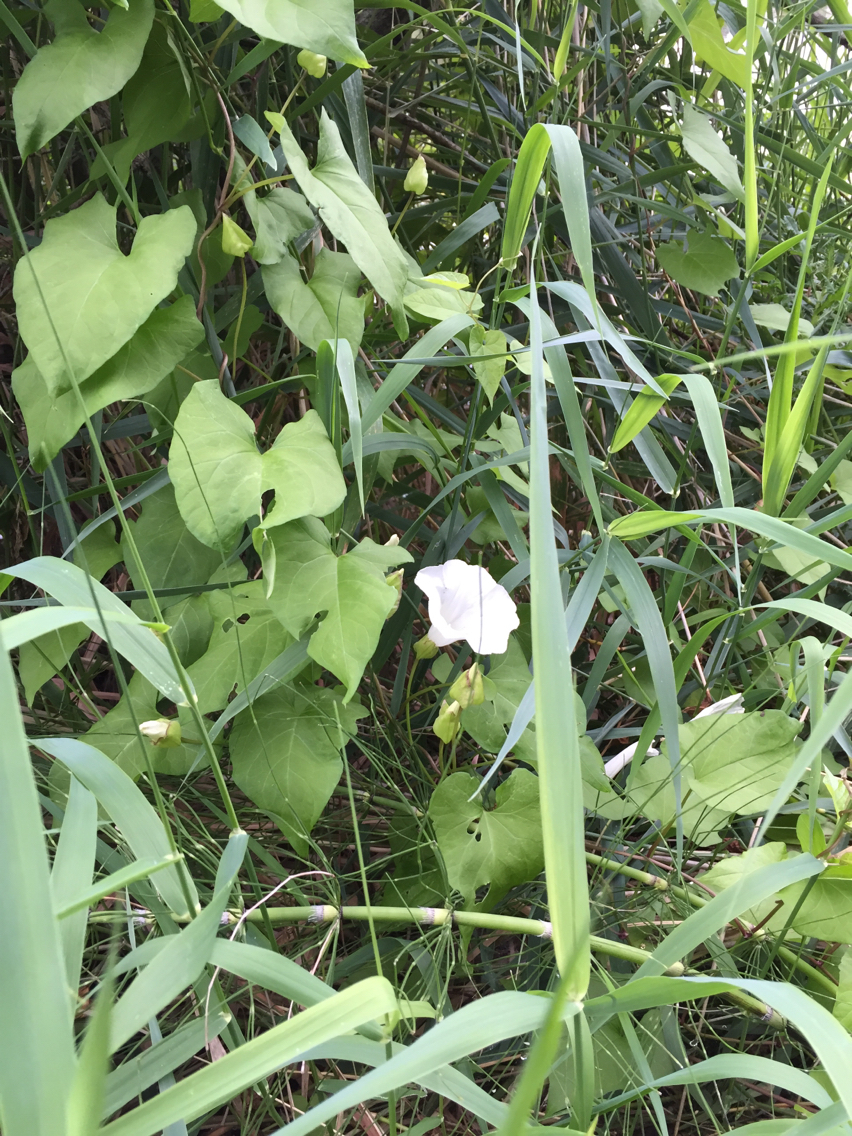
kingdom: Plantae
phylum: Tracheophyta
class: Magnoliopsida
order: Solanales
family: Convolvulaceae
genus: Calystegia
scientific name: Calystegia sepium
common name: Hedge bindweed
